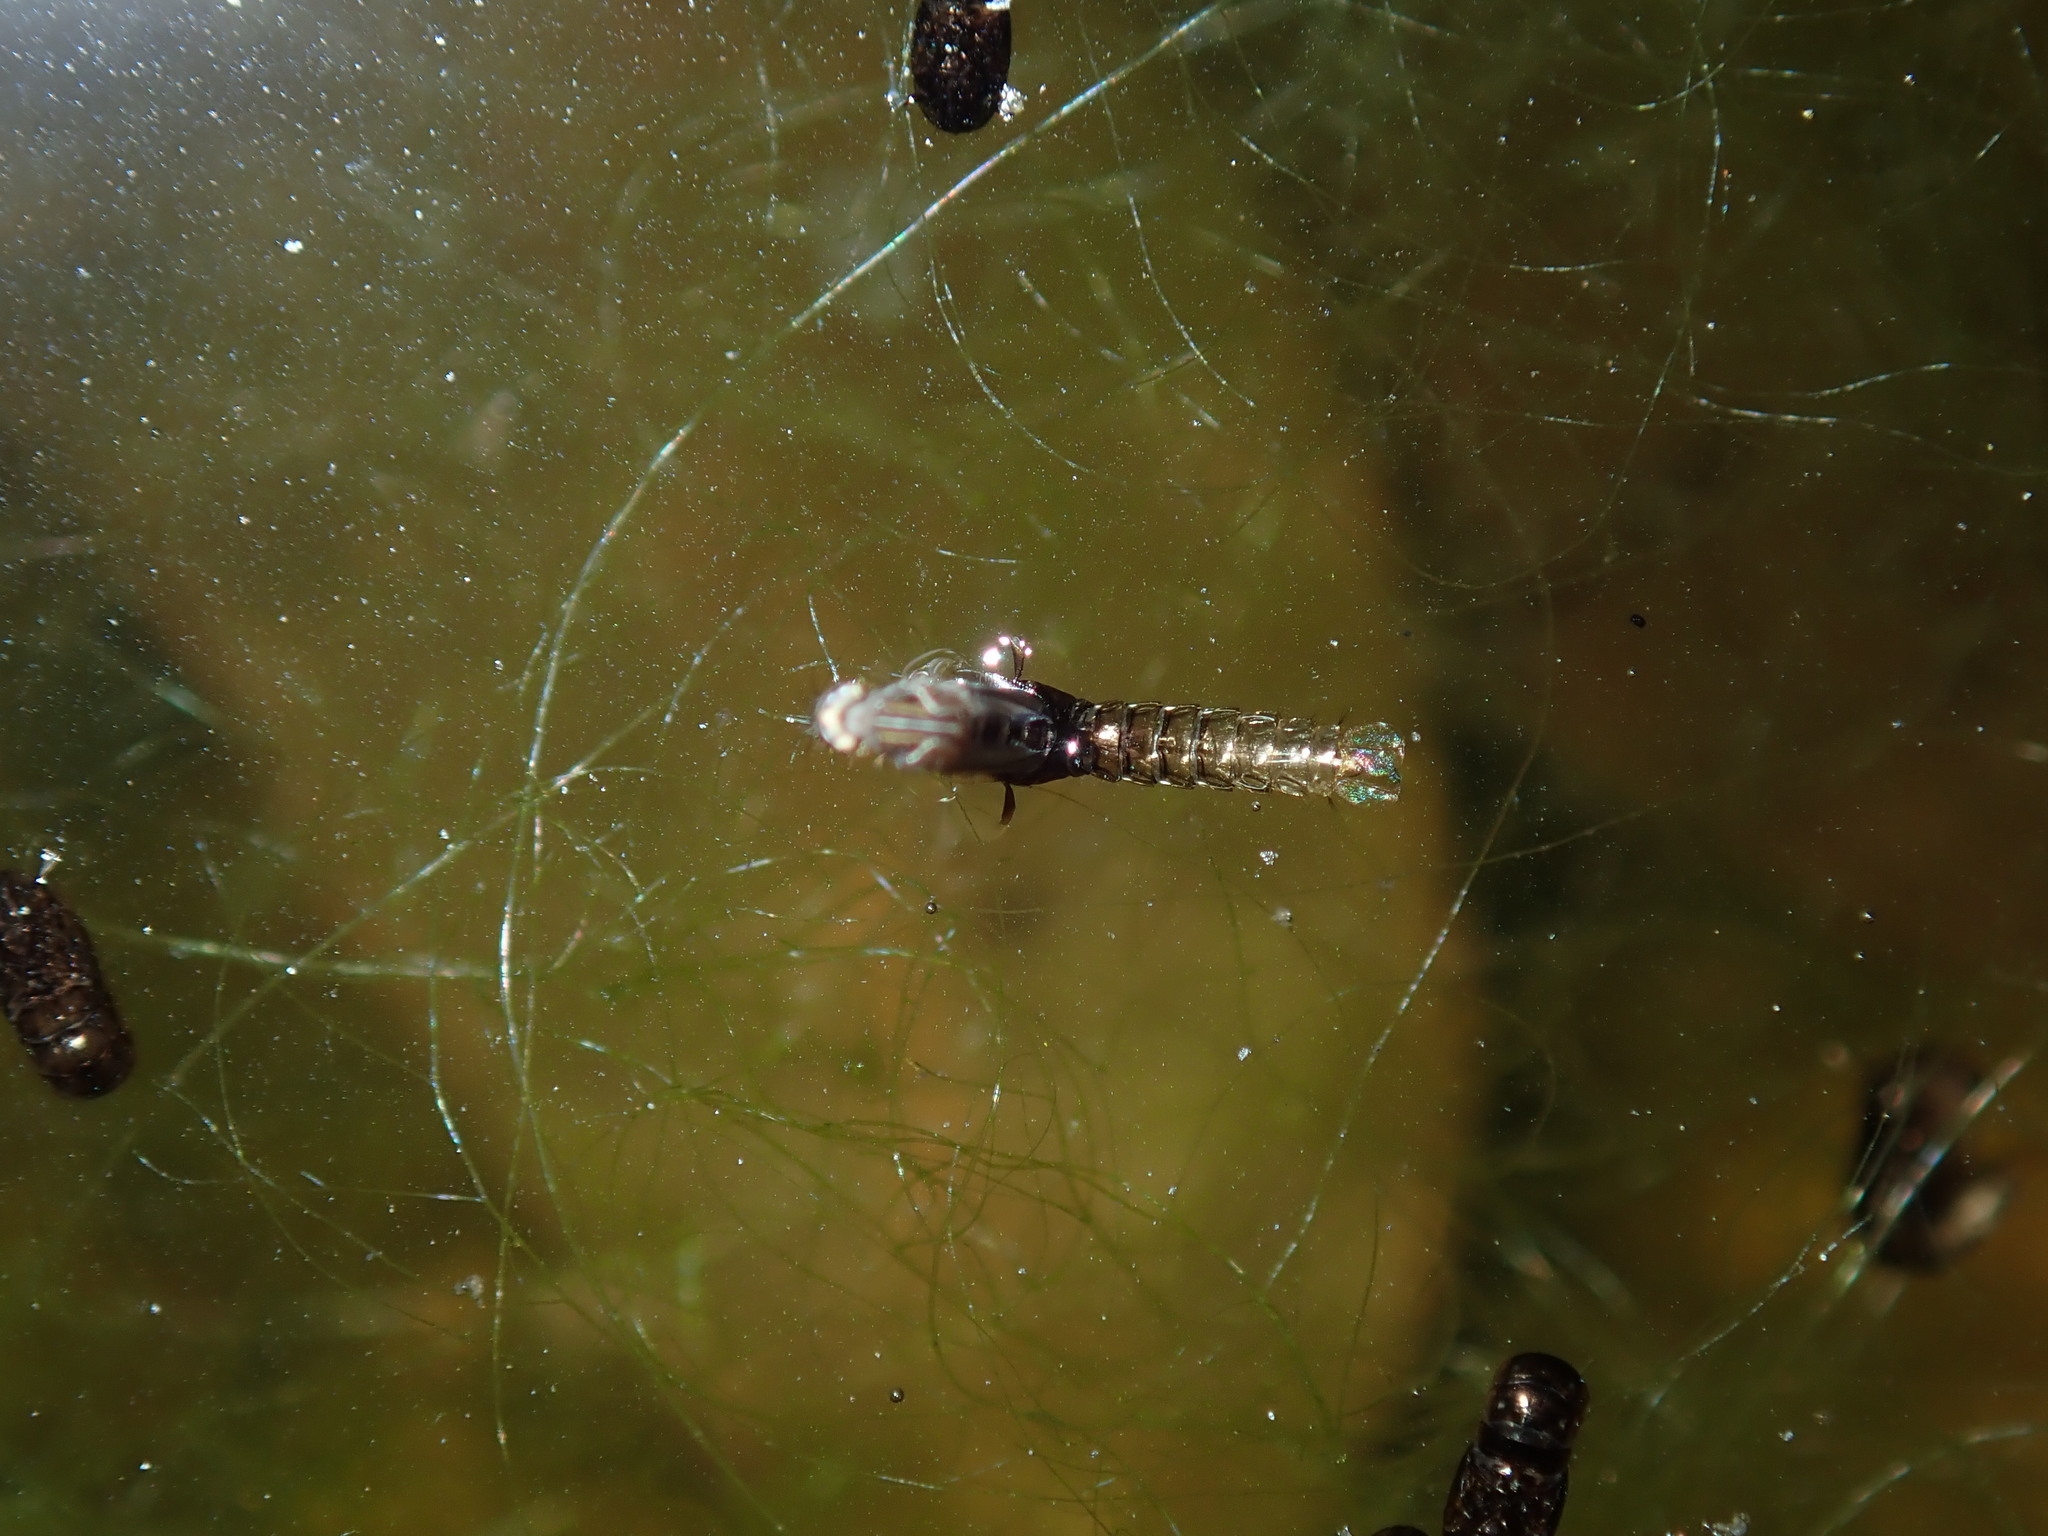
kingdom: Animalia
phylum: Arthropoda
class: Insecta
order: Diptera
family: Culicidae
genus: Aedes
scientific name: Aedes notoscriptus
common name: Australian backyard mosquito
